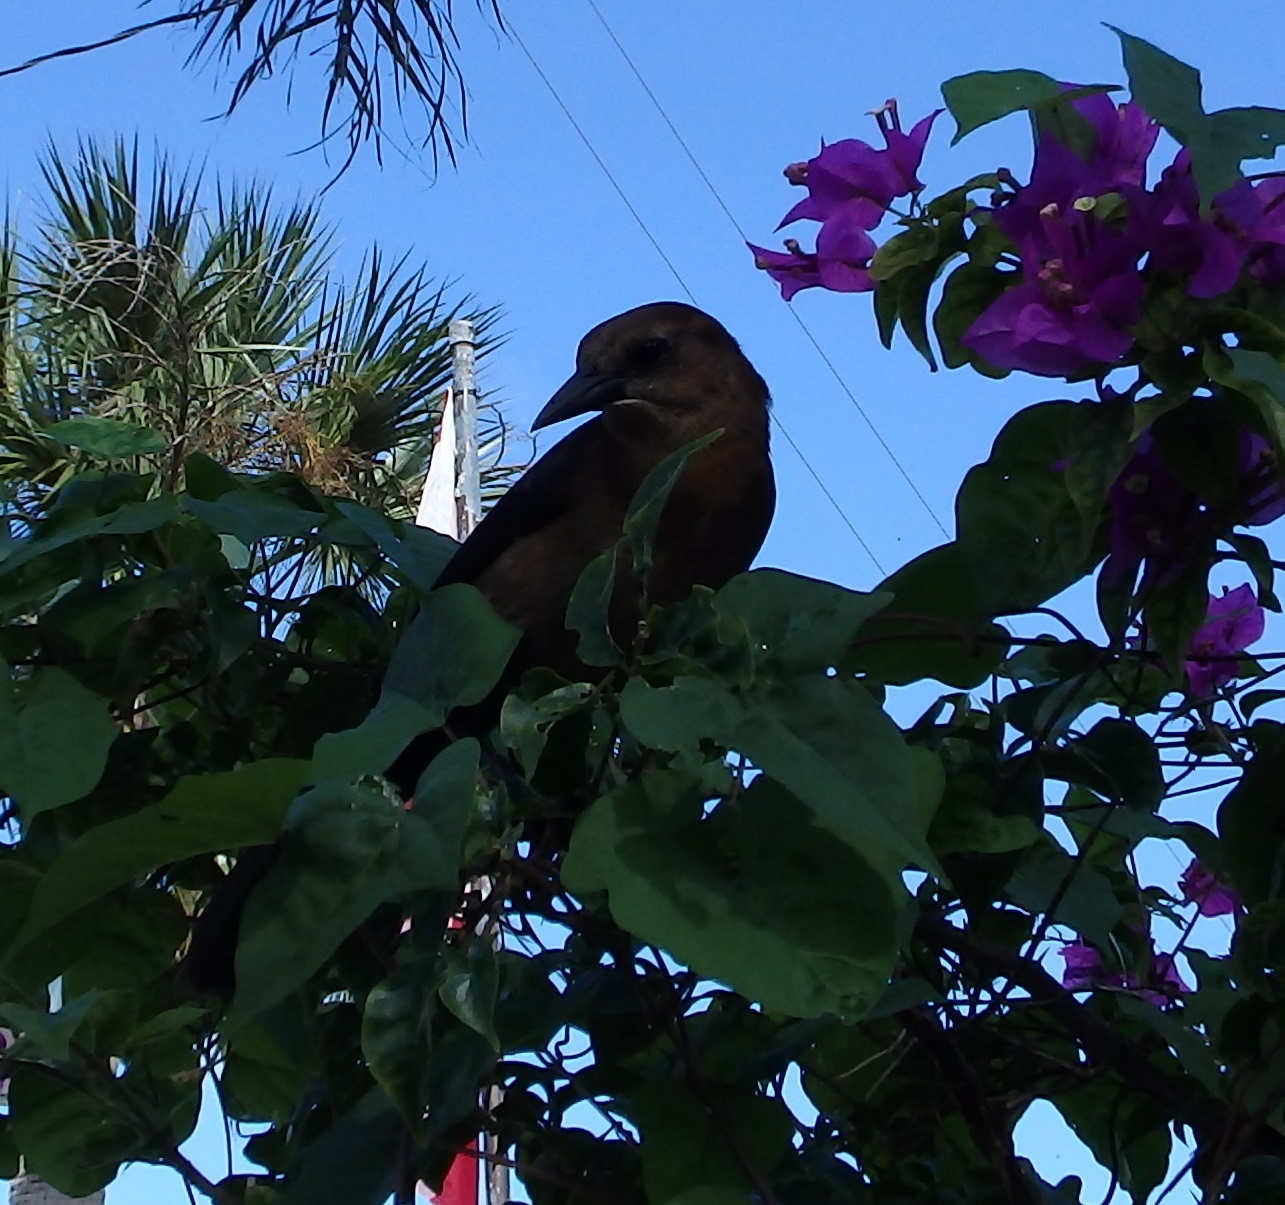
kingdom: Animalia
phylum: Chordata
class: Aves
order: Passeriformes
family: Icteridae
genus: Quiscalus
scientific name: Quiscalus major
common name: Boat-tailed grackle
